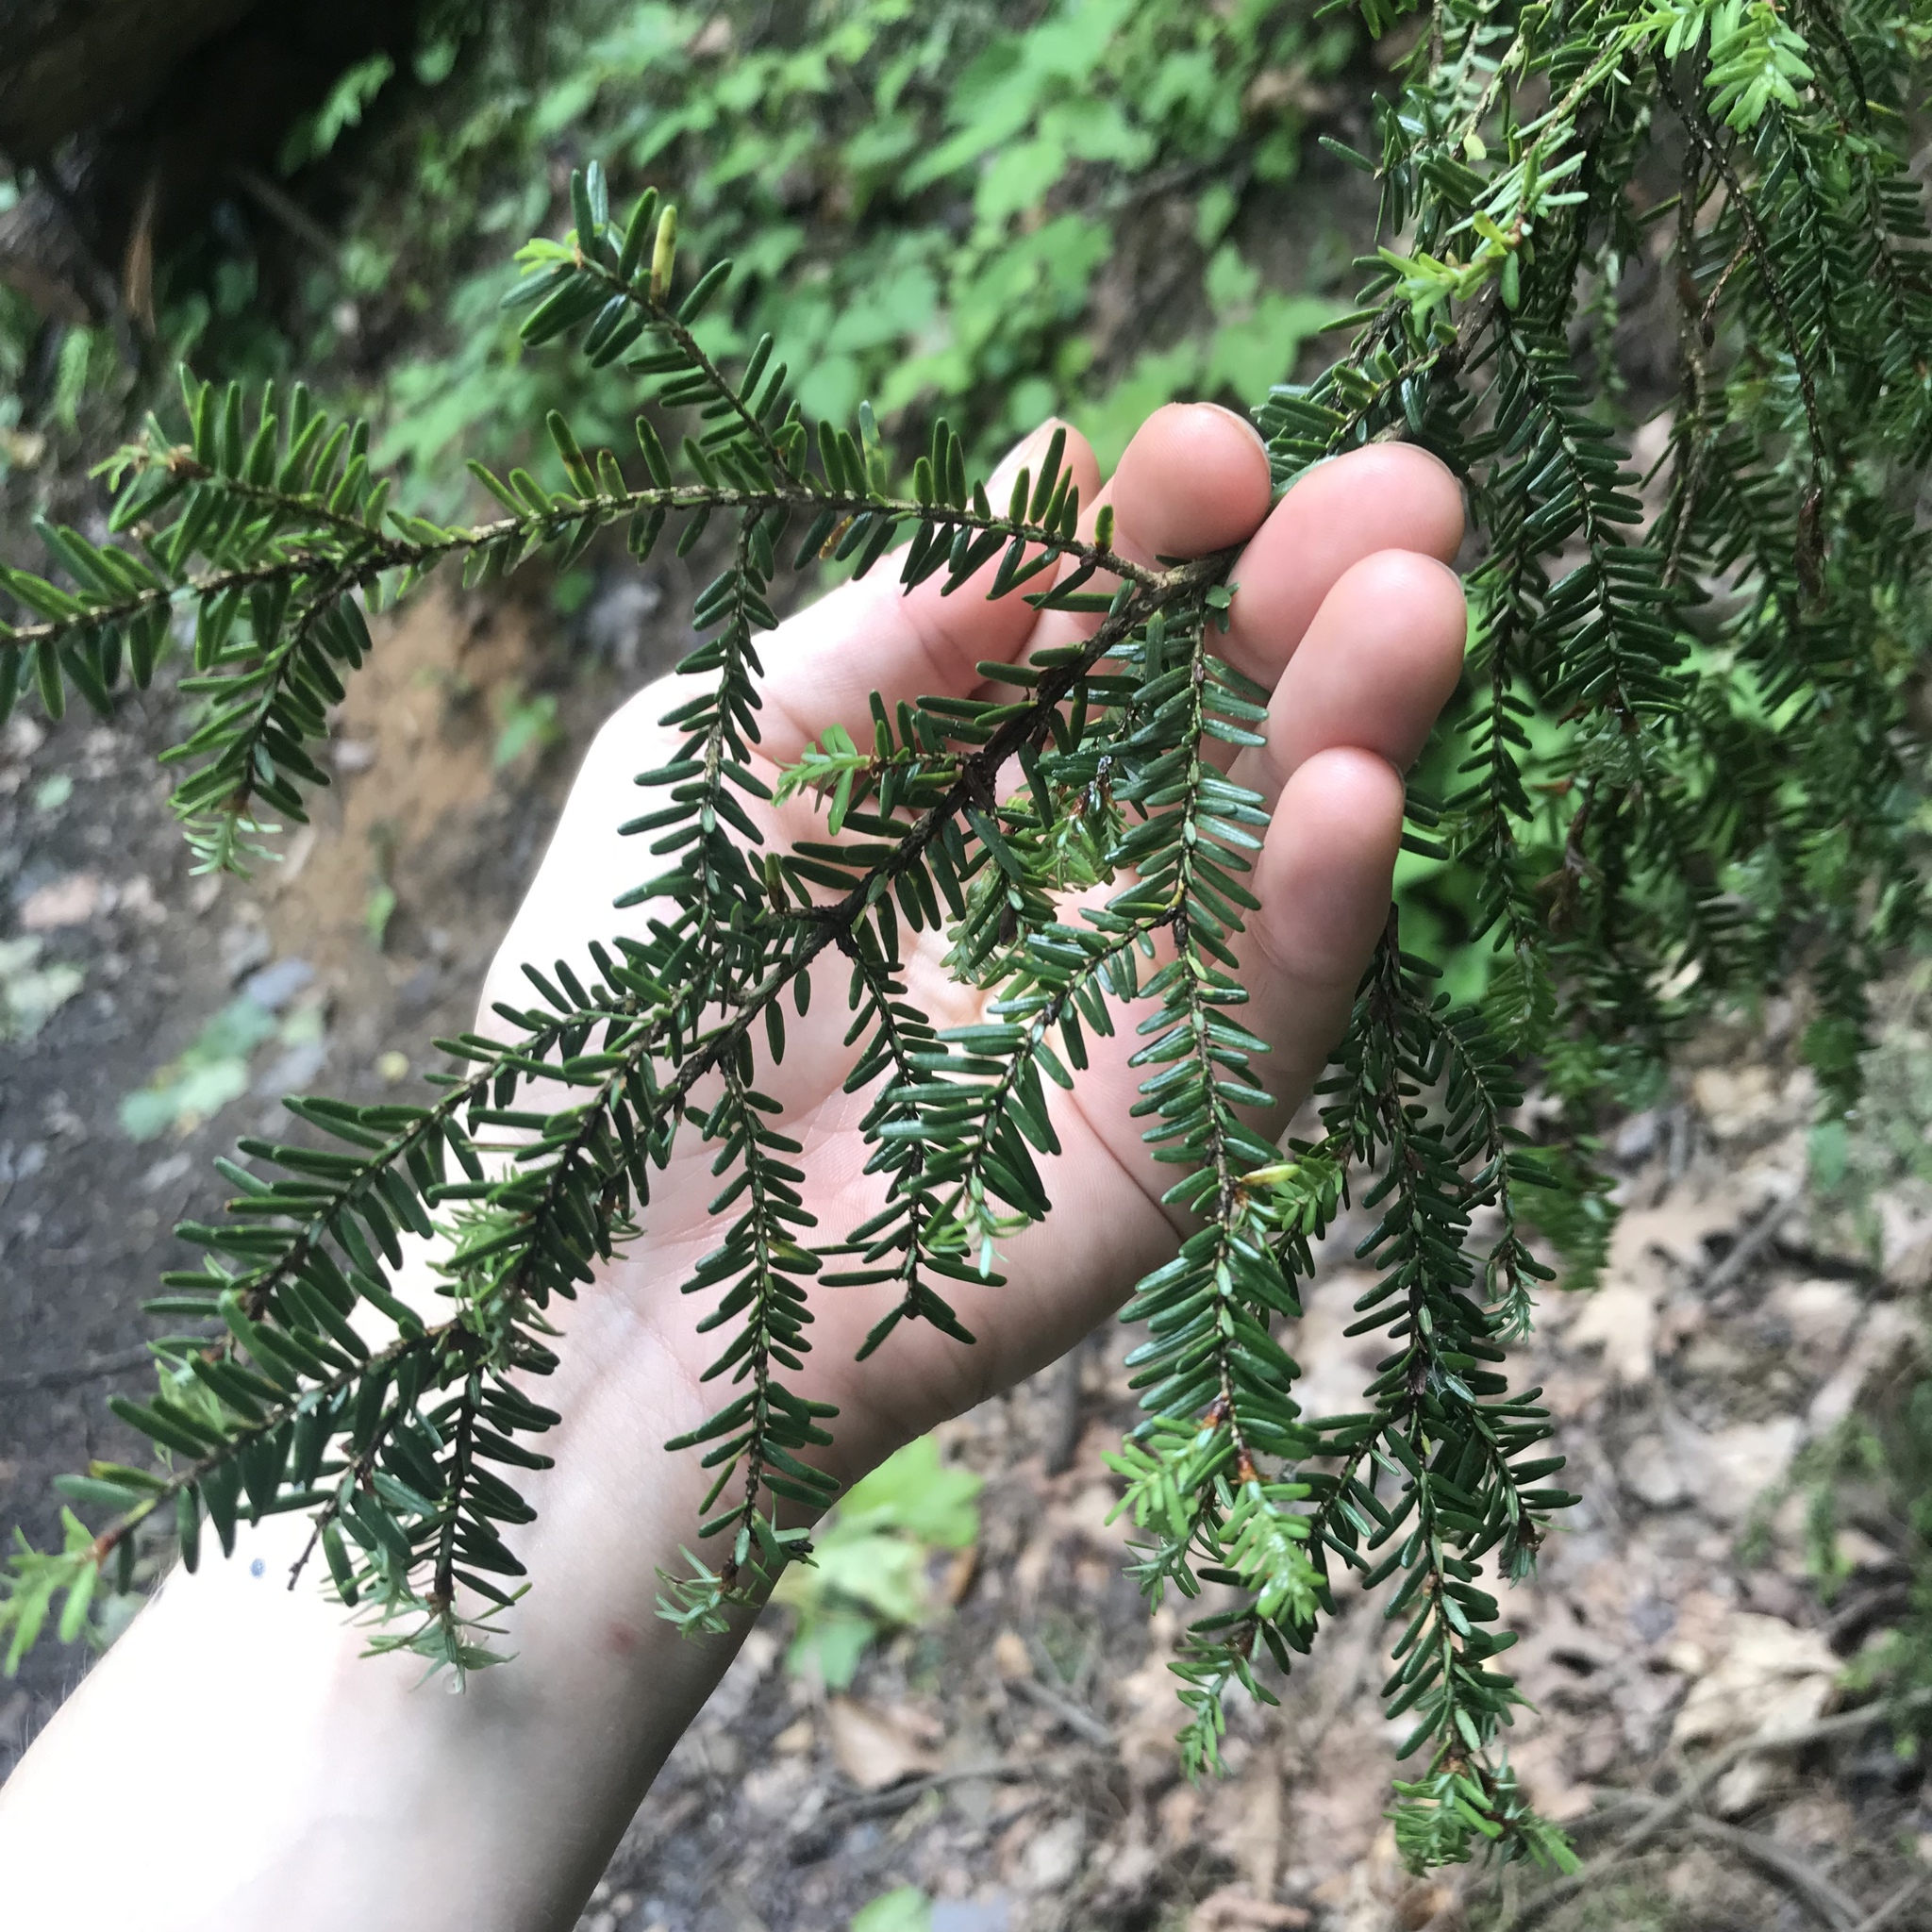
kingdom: Plantae
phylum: Tracheophyta
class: Pinopsida
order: Pinales
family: Pinaceae
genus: Tsuga
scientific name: Tsuga canadensis
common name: Eastern hemlock
